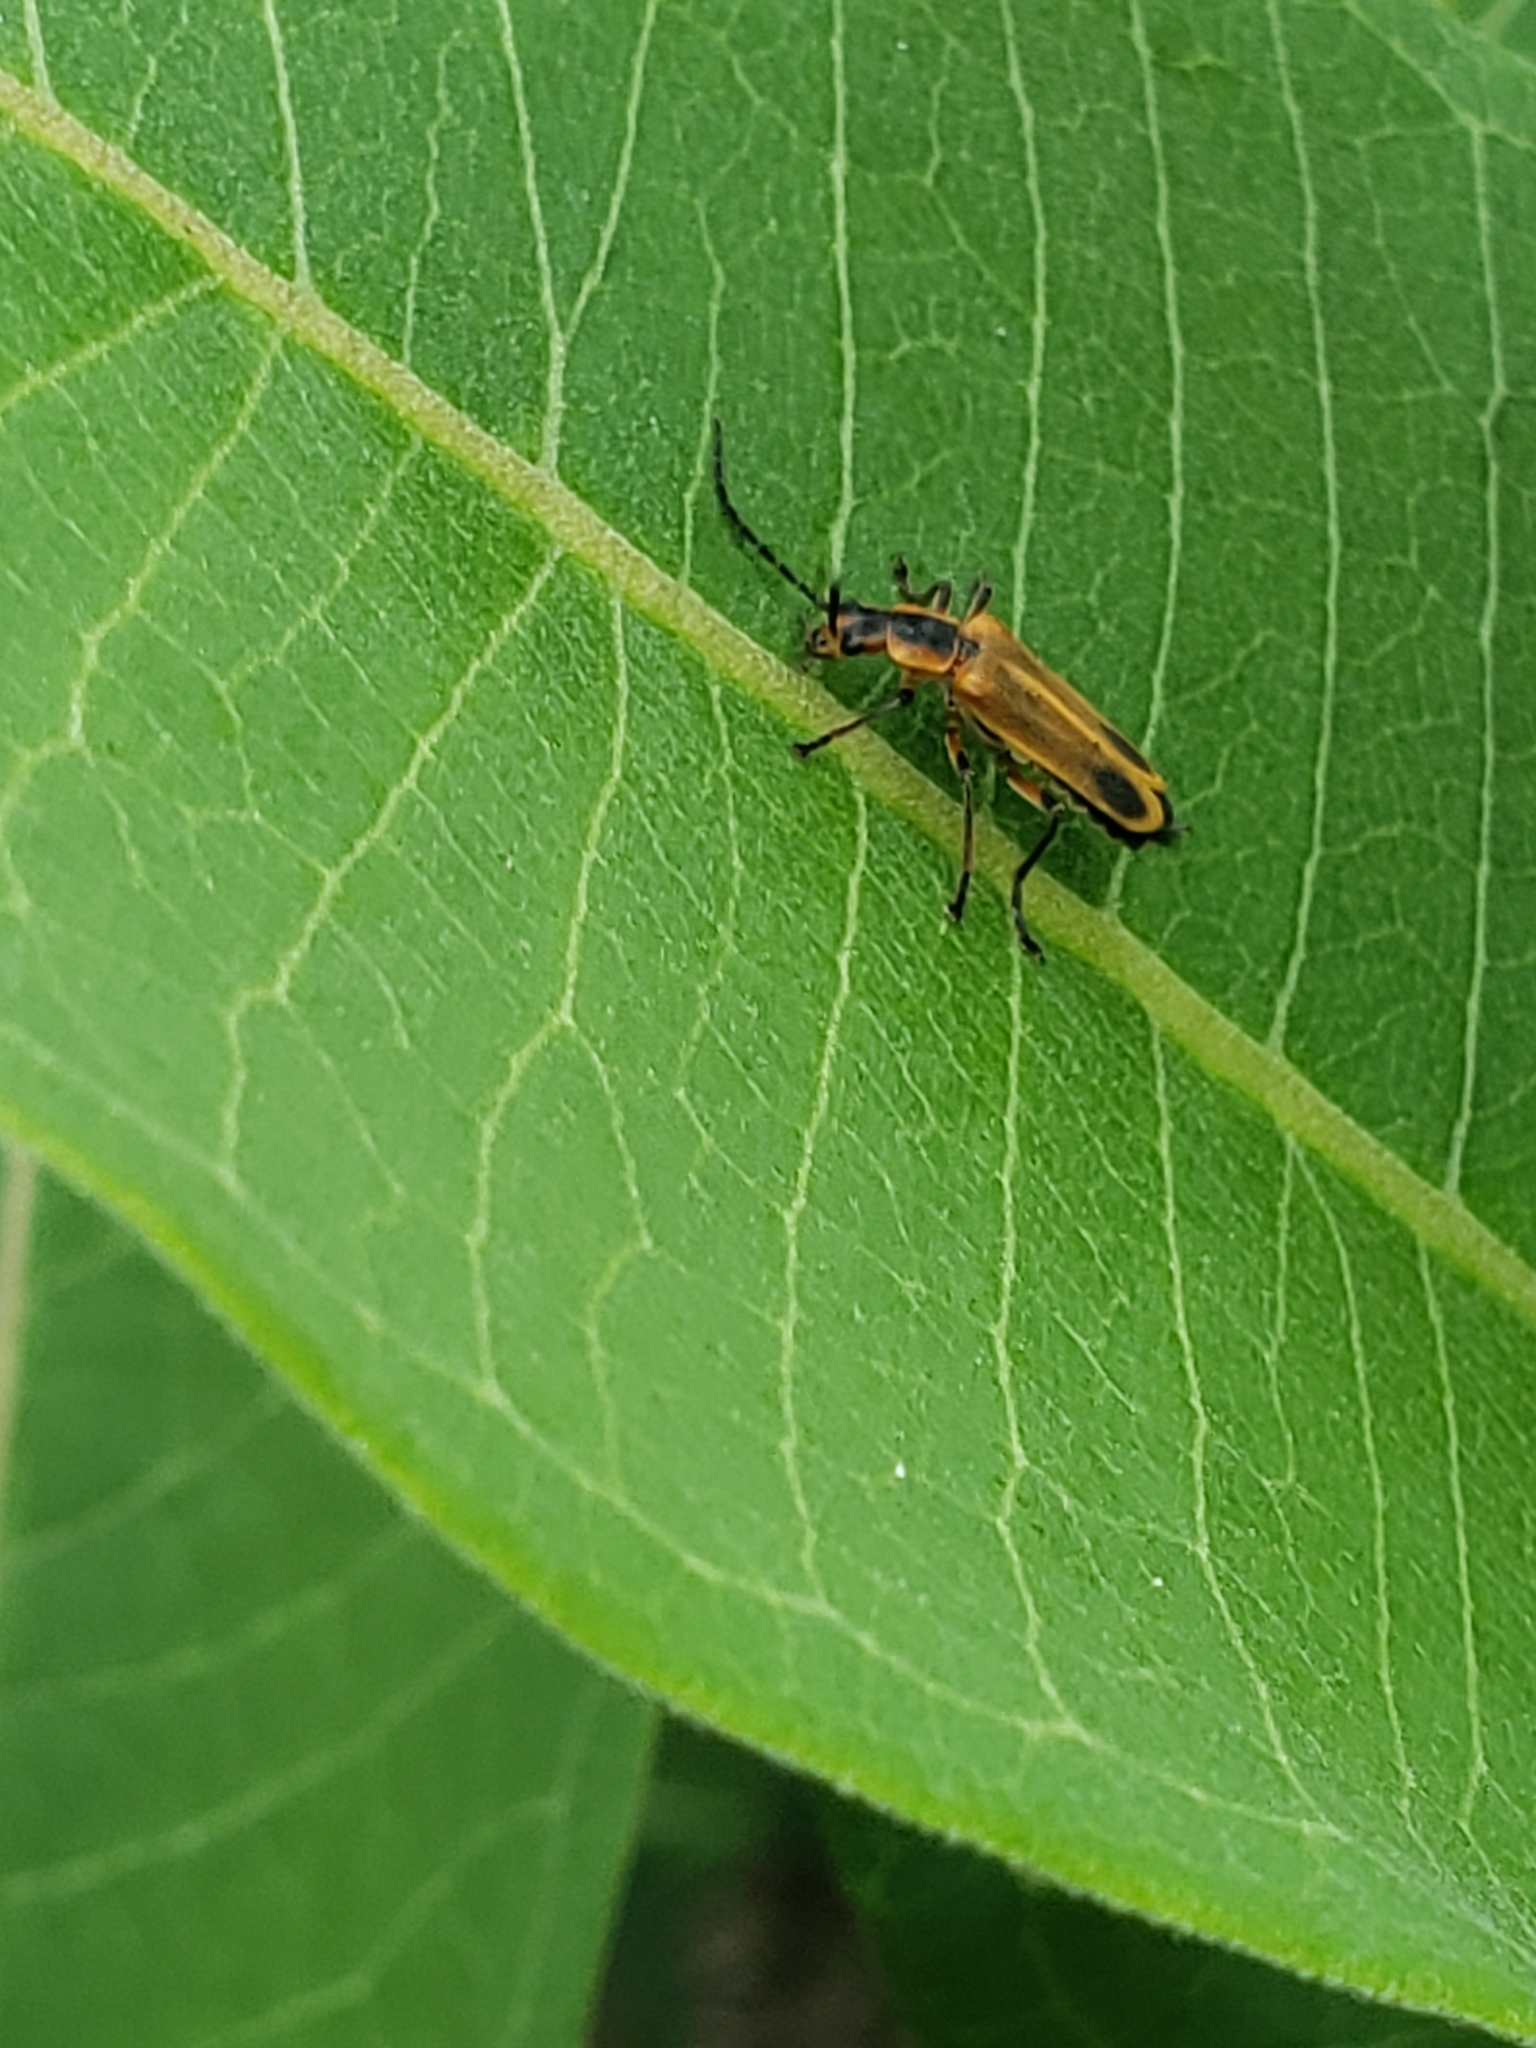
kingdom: Animalia
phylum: Arthropoda
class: Insecta
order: Coleoptera
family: Cantharidae
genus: Chauliognathus
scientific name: Chauliognathus marginatus
